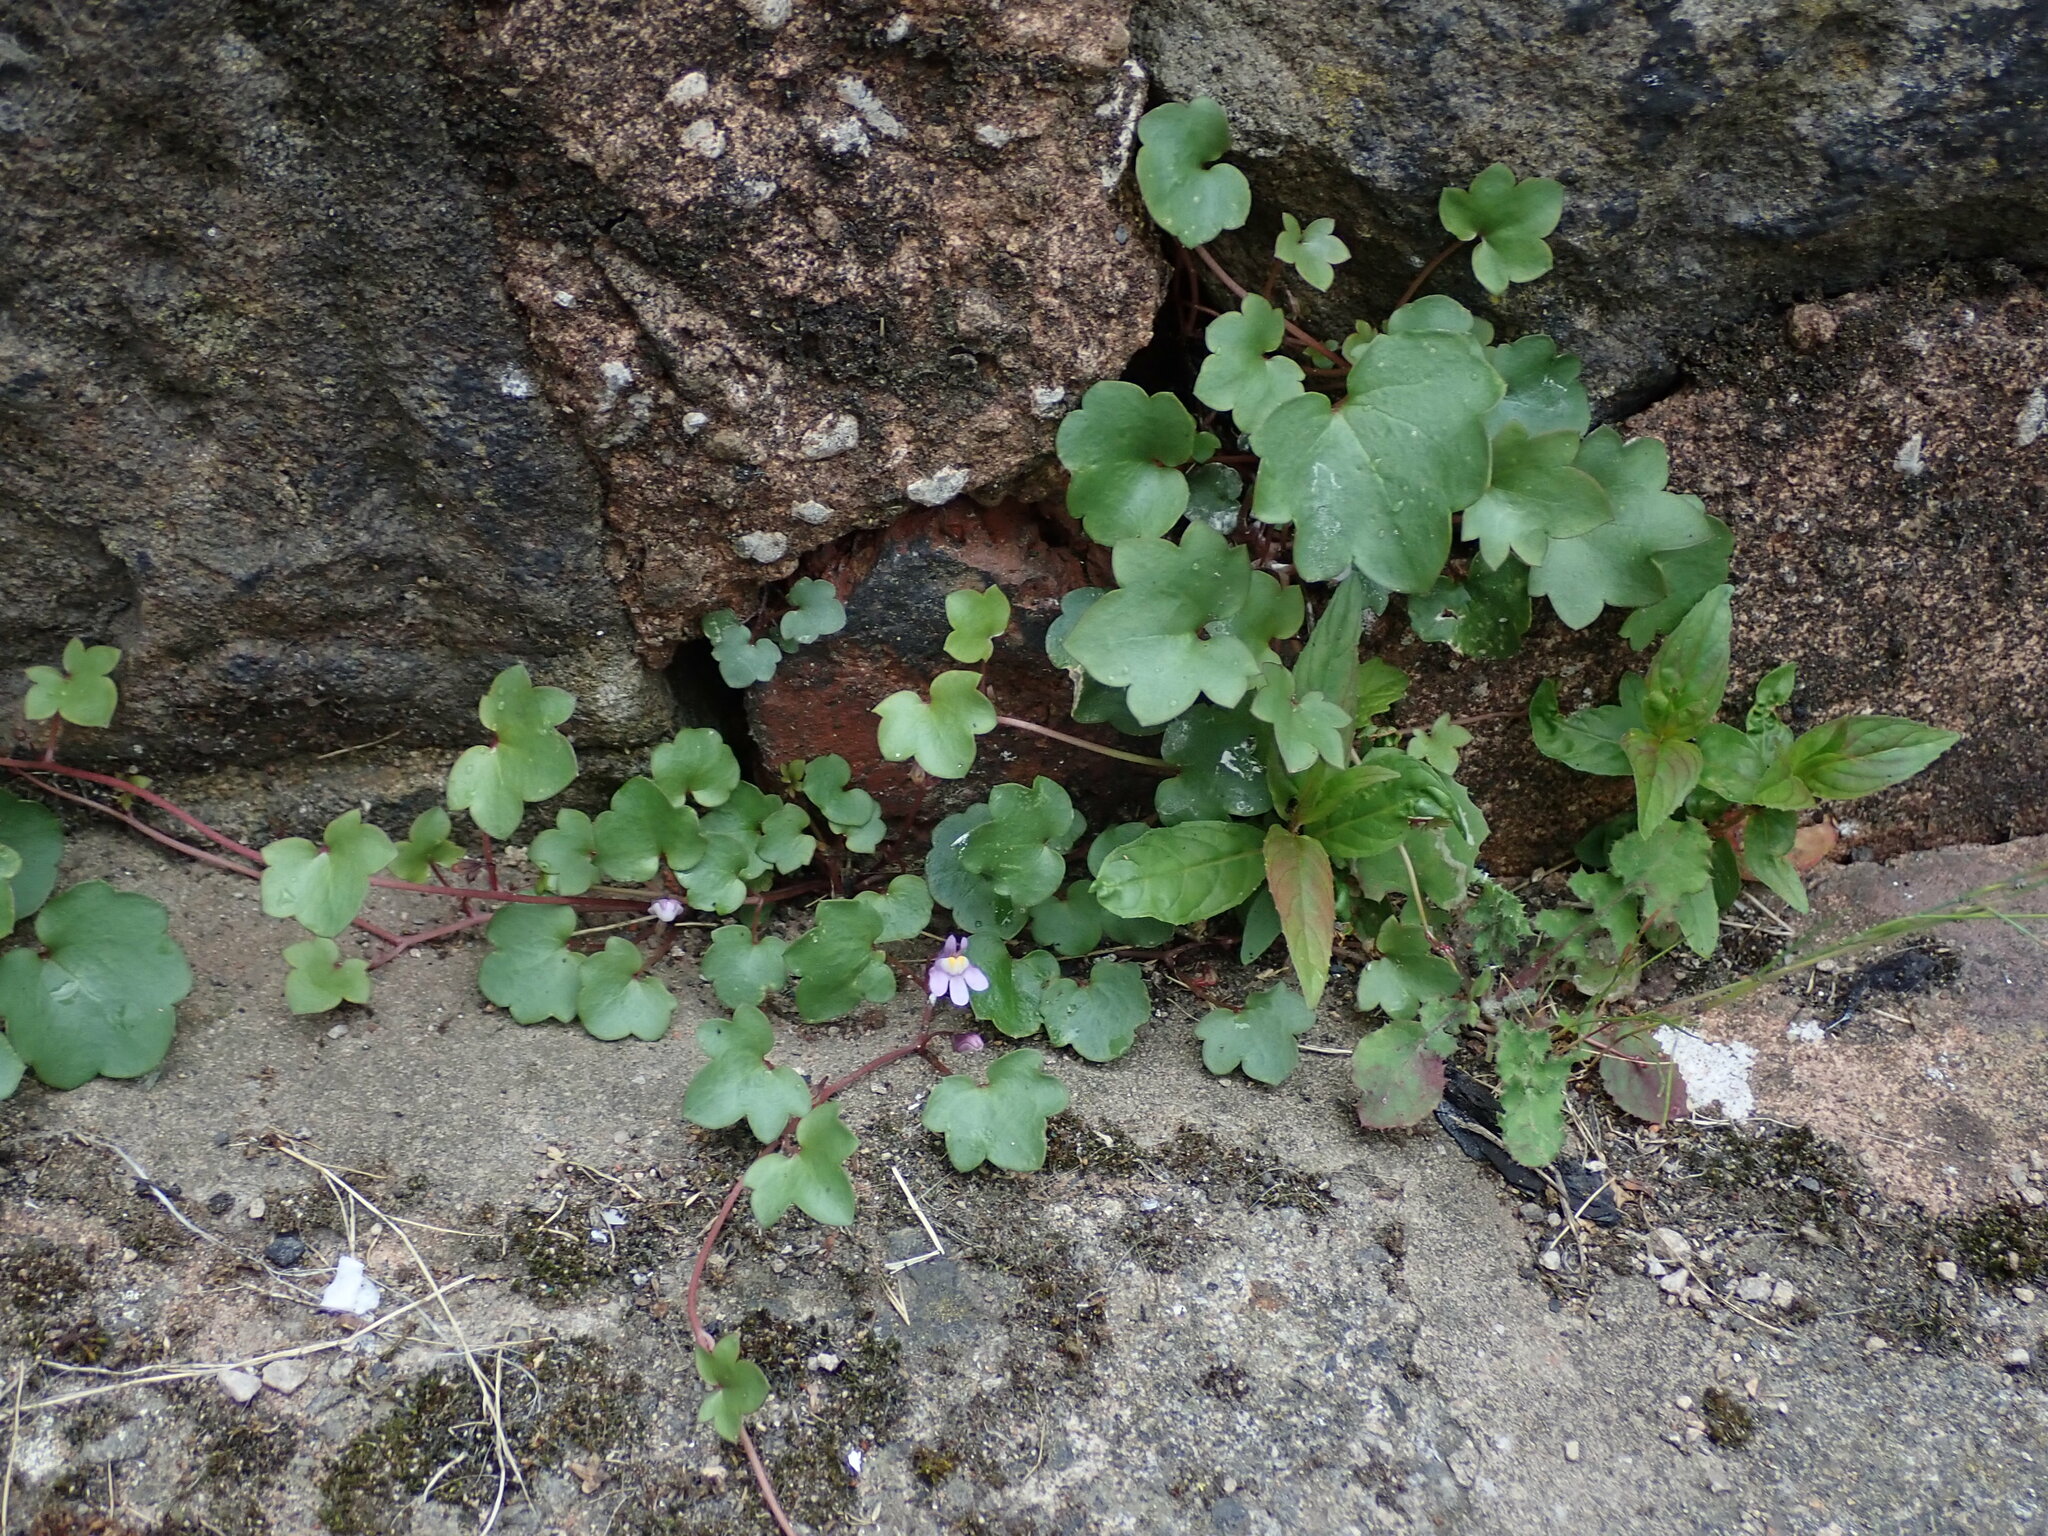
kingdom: Plantae
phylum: Tracheophyta
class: Magnoliopsida
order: Lamiales
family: Plantaginaceae
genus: Cymbalaria
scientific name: Cymbalaria muralis
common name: Ivy-leaved toadflax
